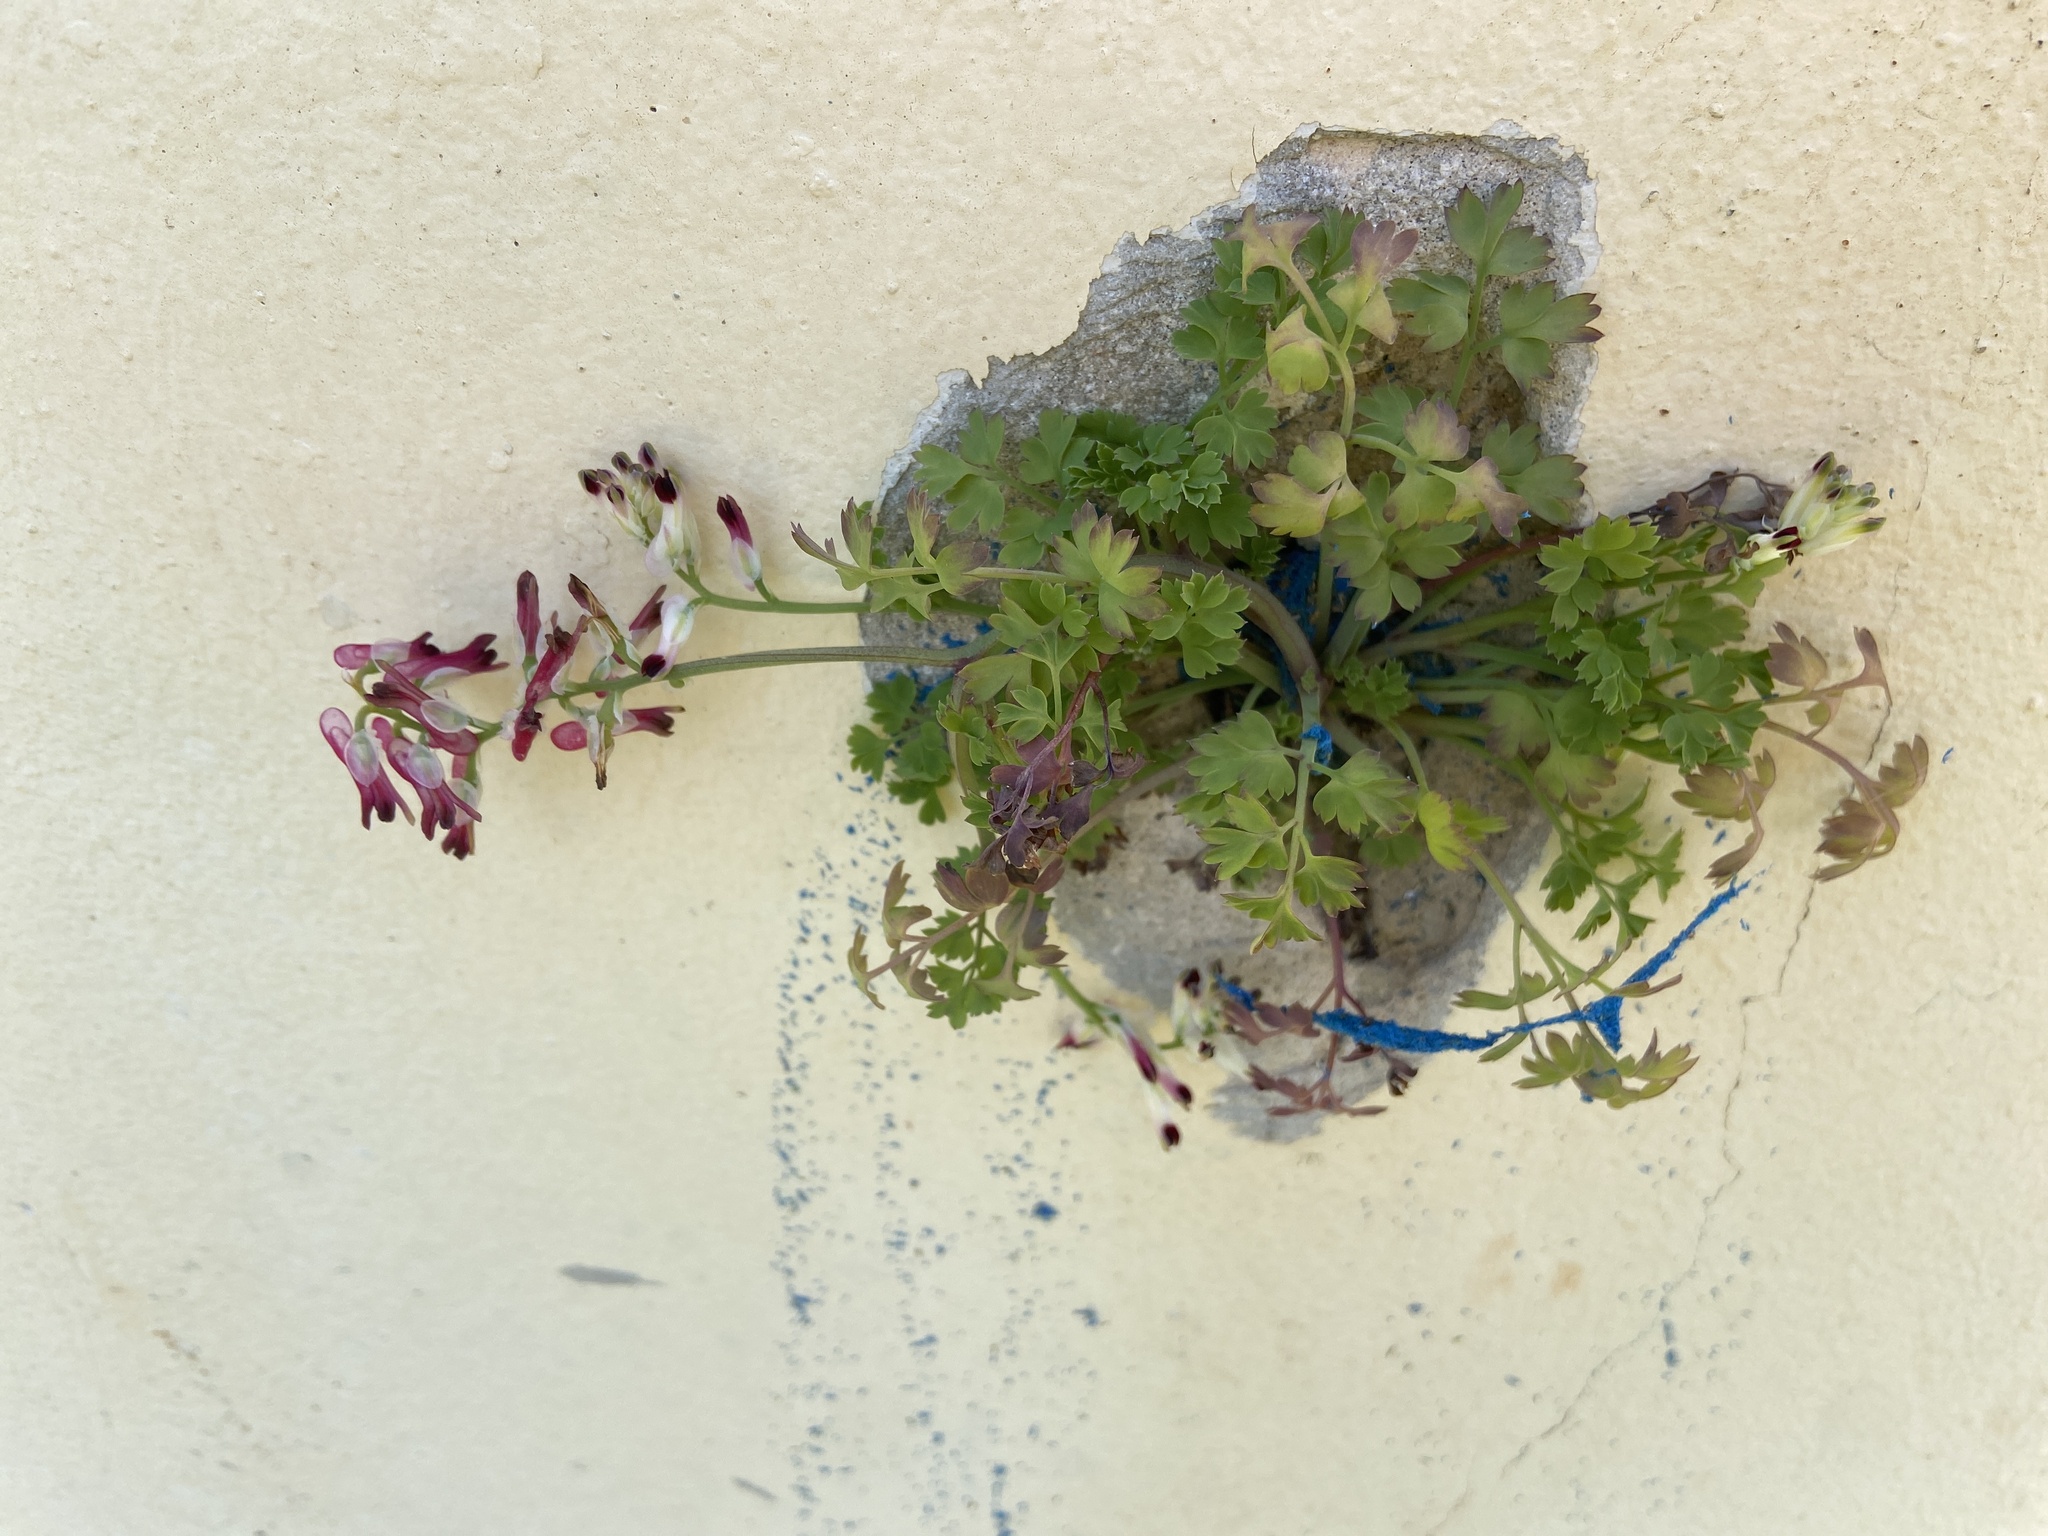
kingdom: Plantae
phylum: Tracheophyta
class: Magnoliopsida
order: Ranunculales
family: Papaveraceae
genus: Fumaria
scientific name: Fumaria capreolata
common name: White ramping-fumitory
